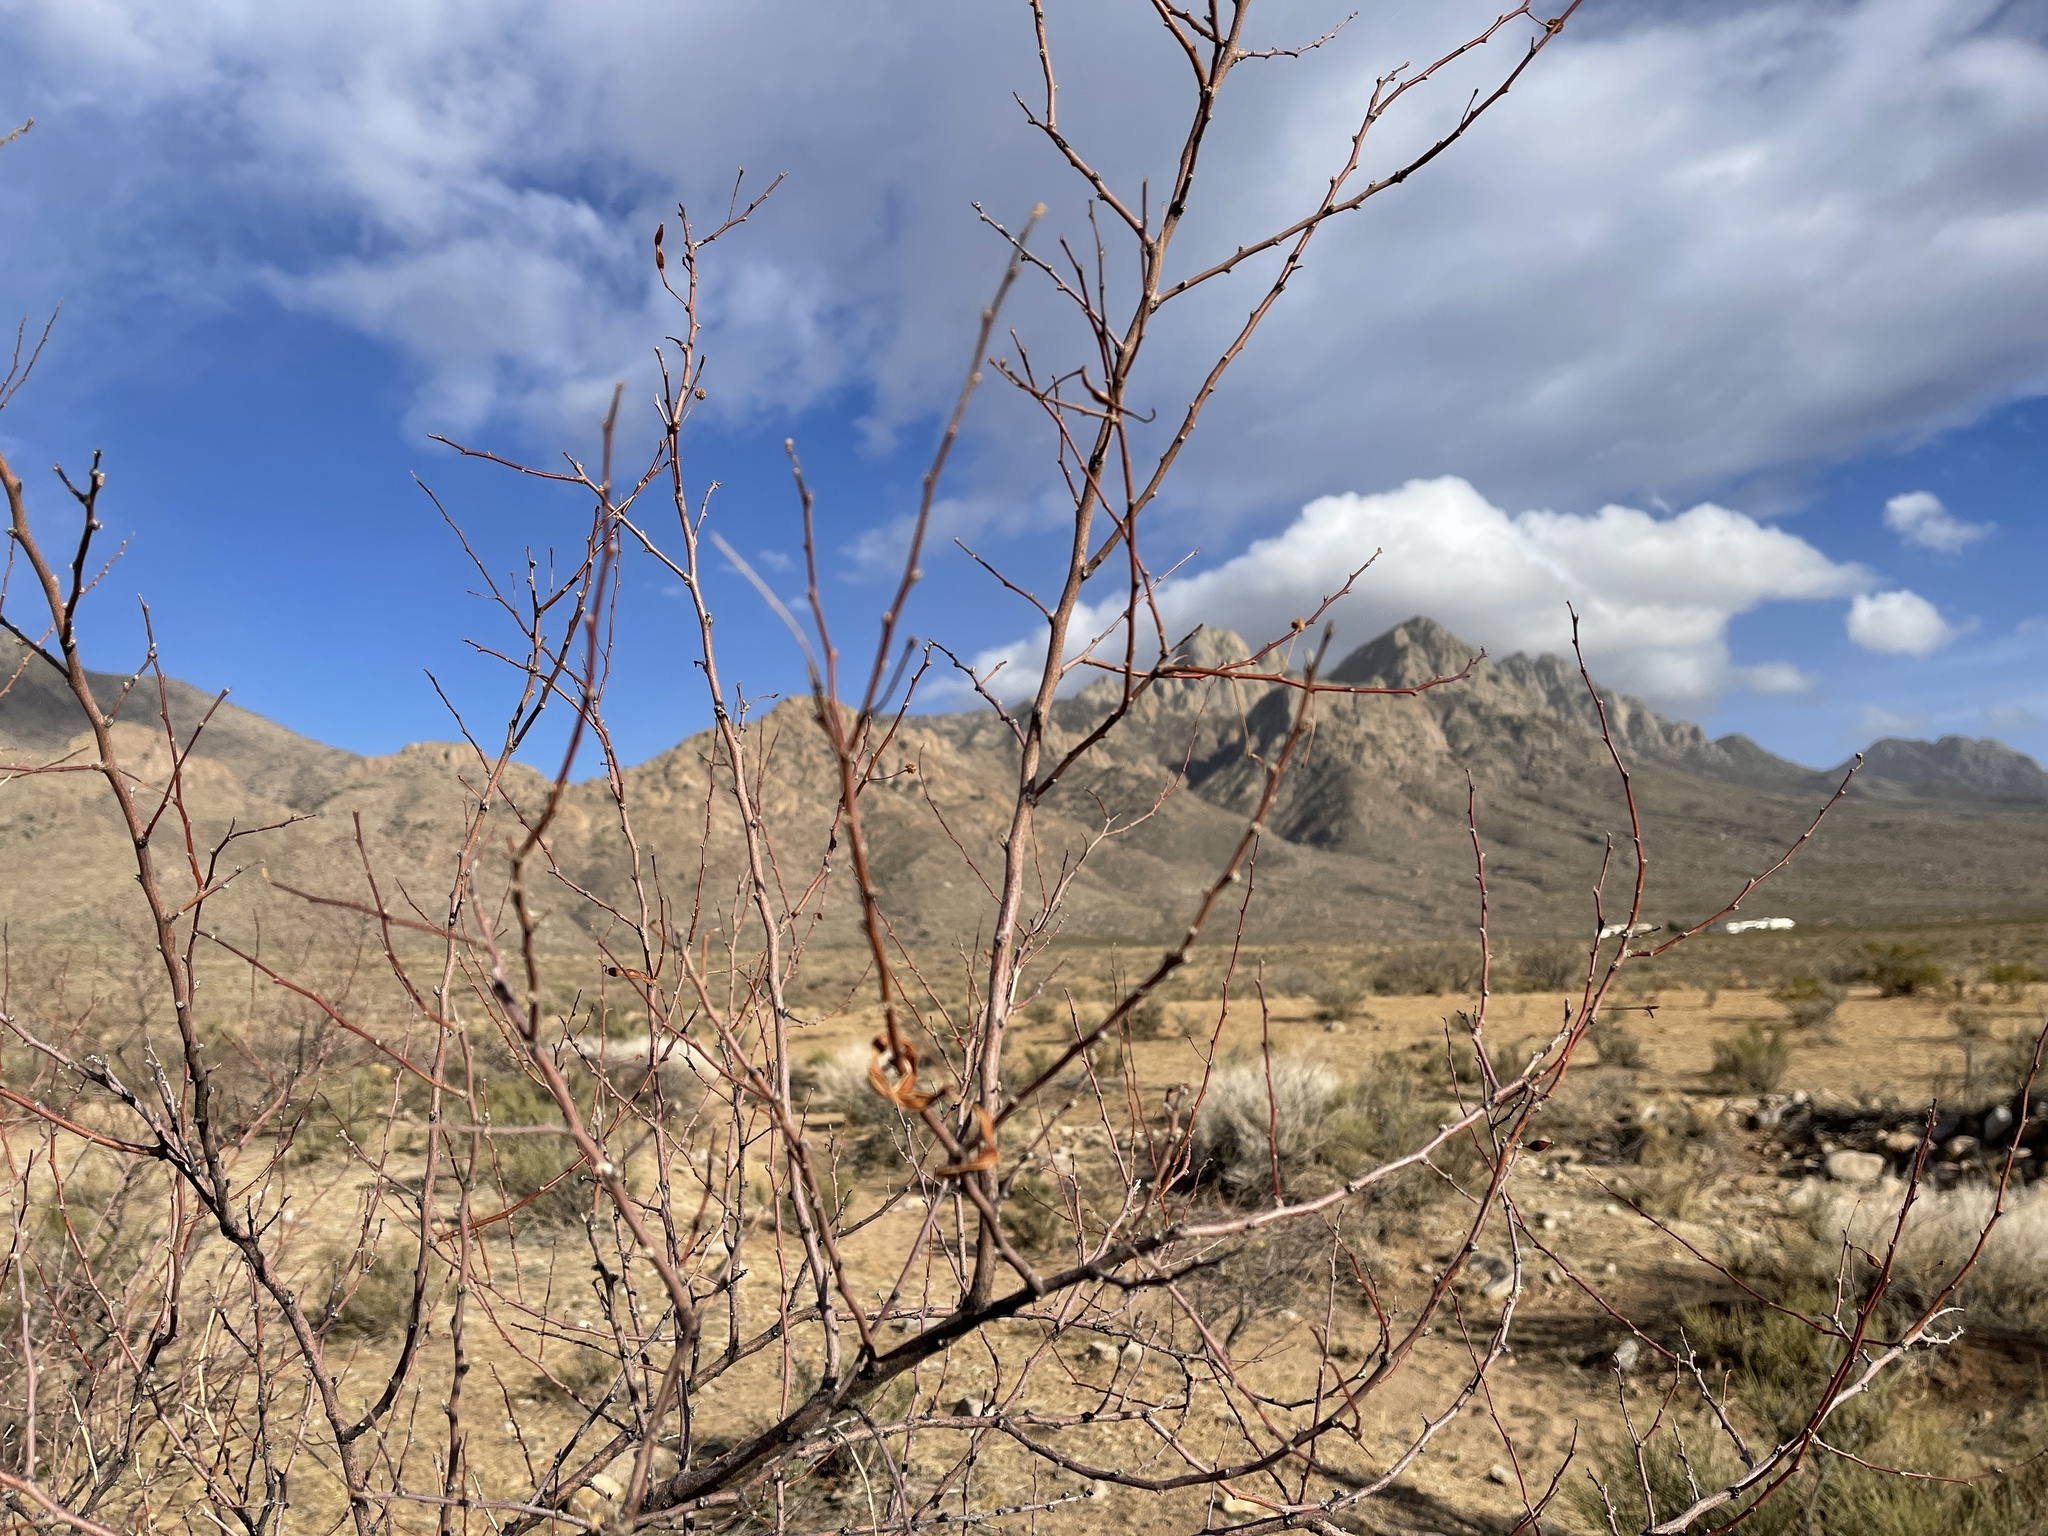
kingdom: Plantae
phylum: Tracheophyta
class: Magnoliopsida
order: Fabales
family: Fabaceae
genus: Vachellia
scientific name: Vachellia constricta
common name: Mescat acacia
